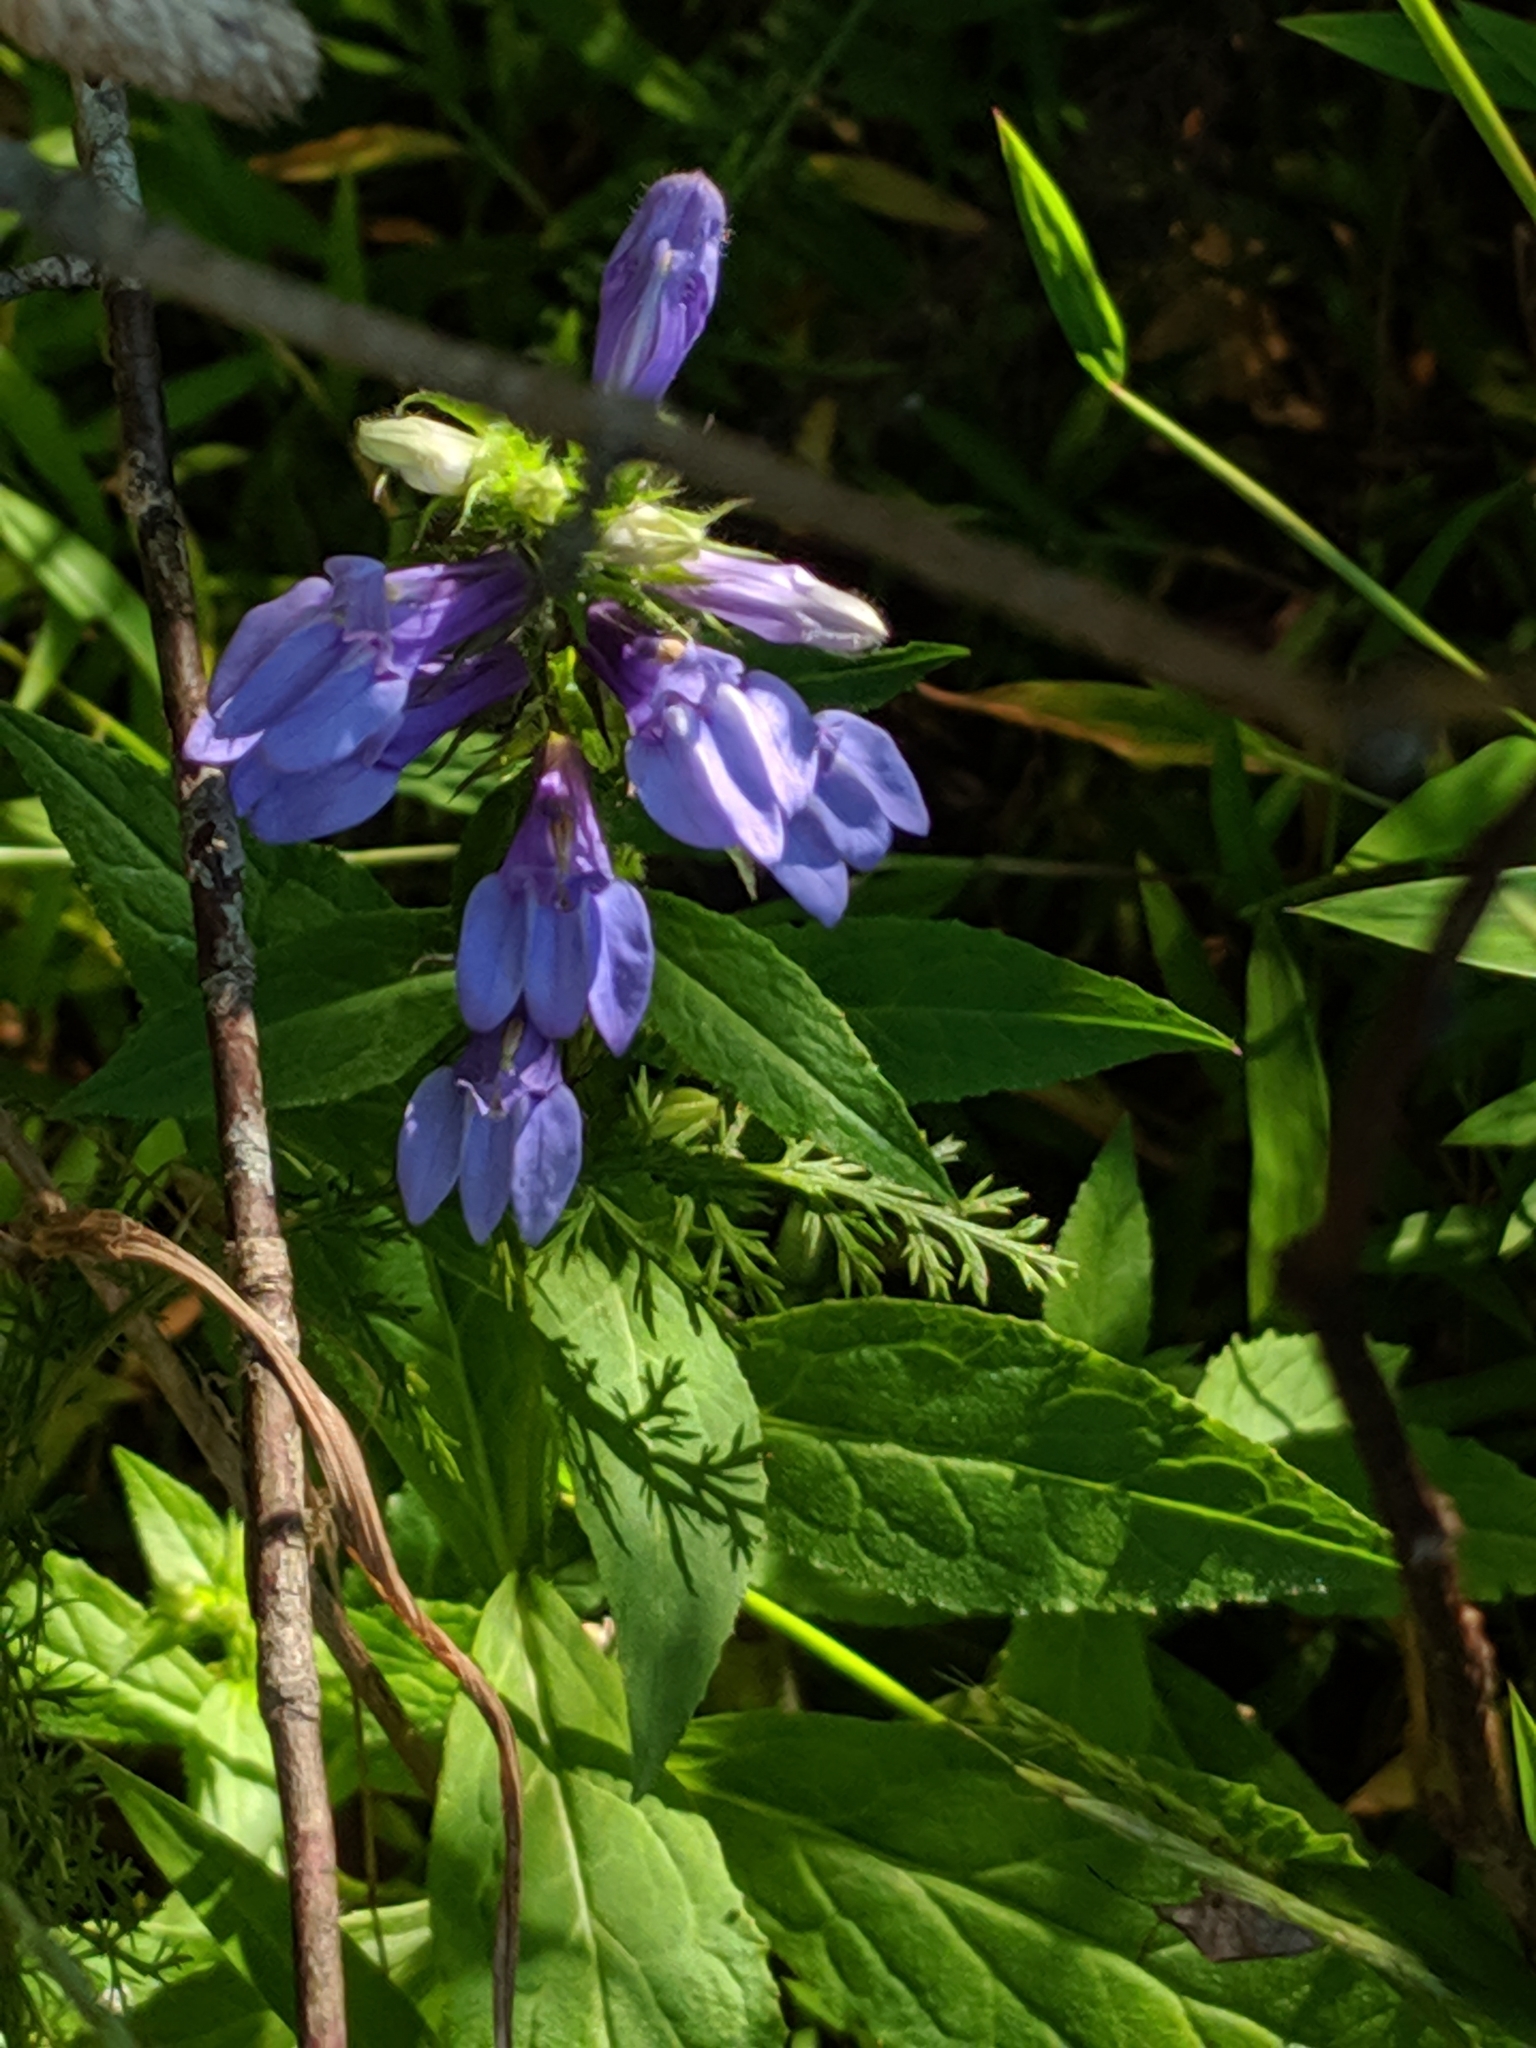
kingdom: Plantae
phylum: Tracheophyta
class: Magnoliopsida
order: Asterales
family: Campanulaceae
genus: Lobelia
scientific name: Lobelia siphilitica
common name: Great lobelia
